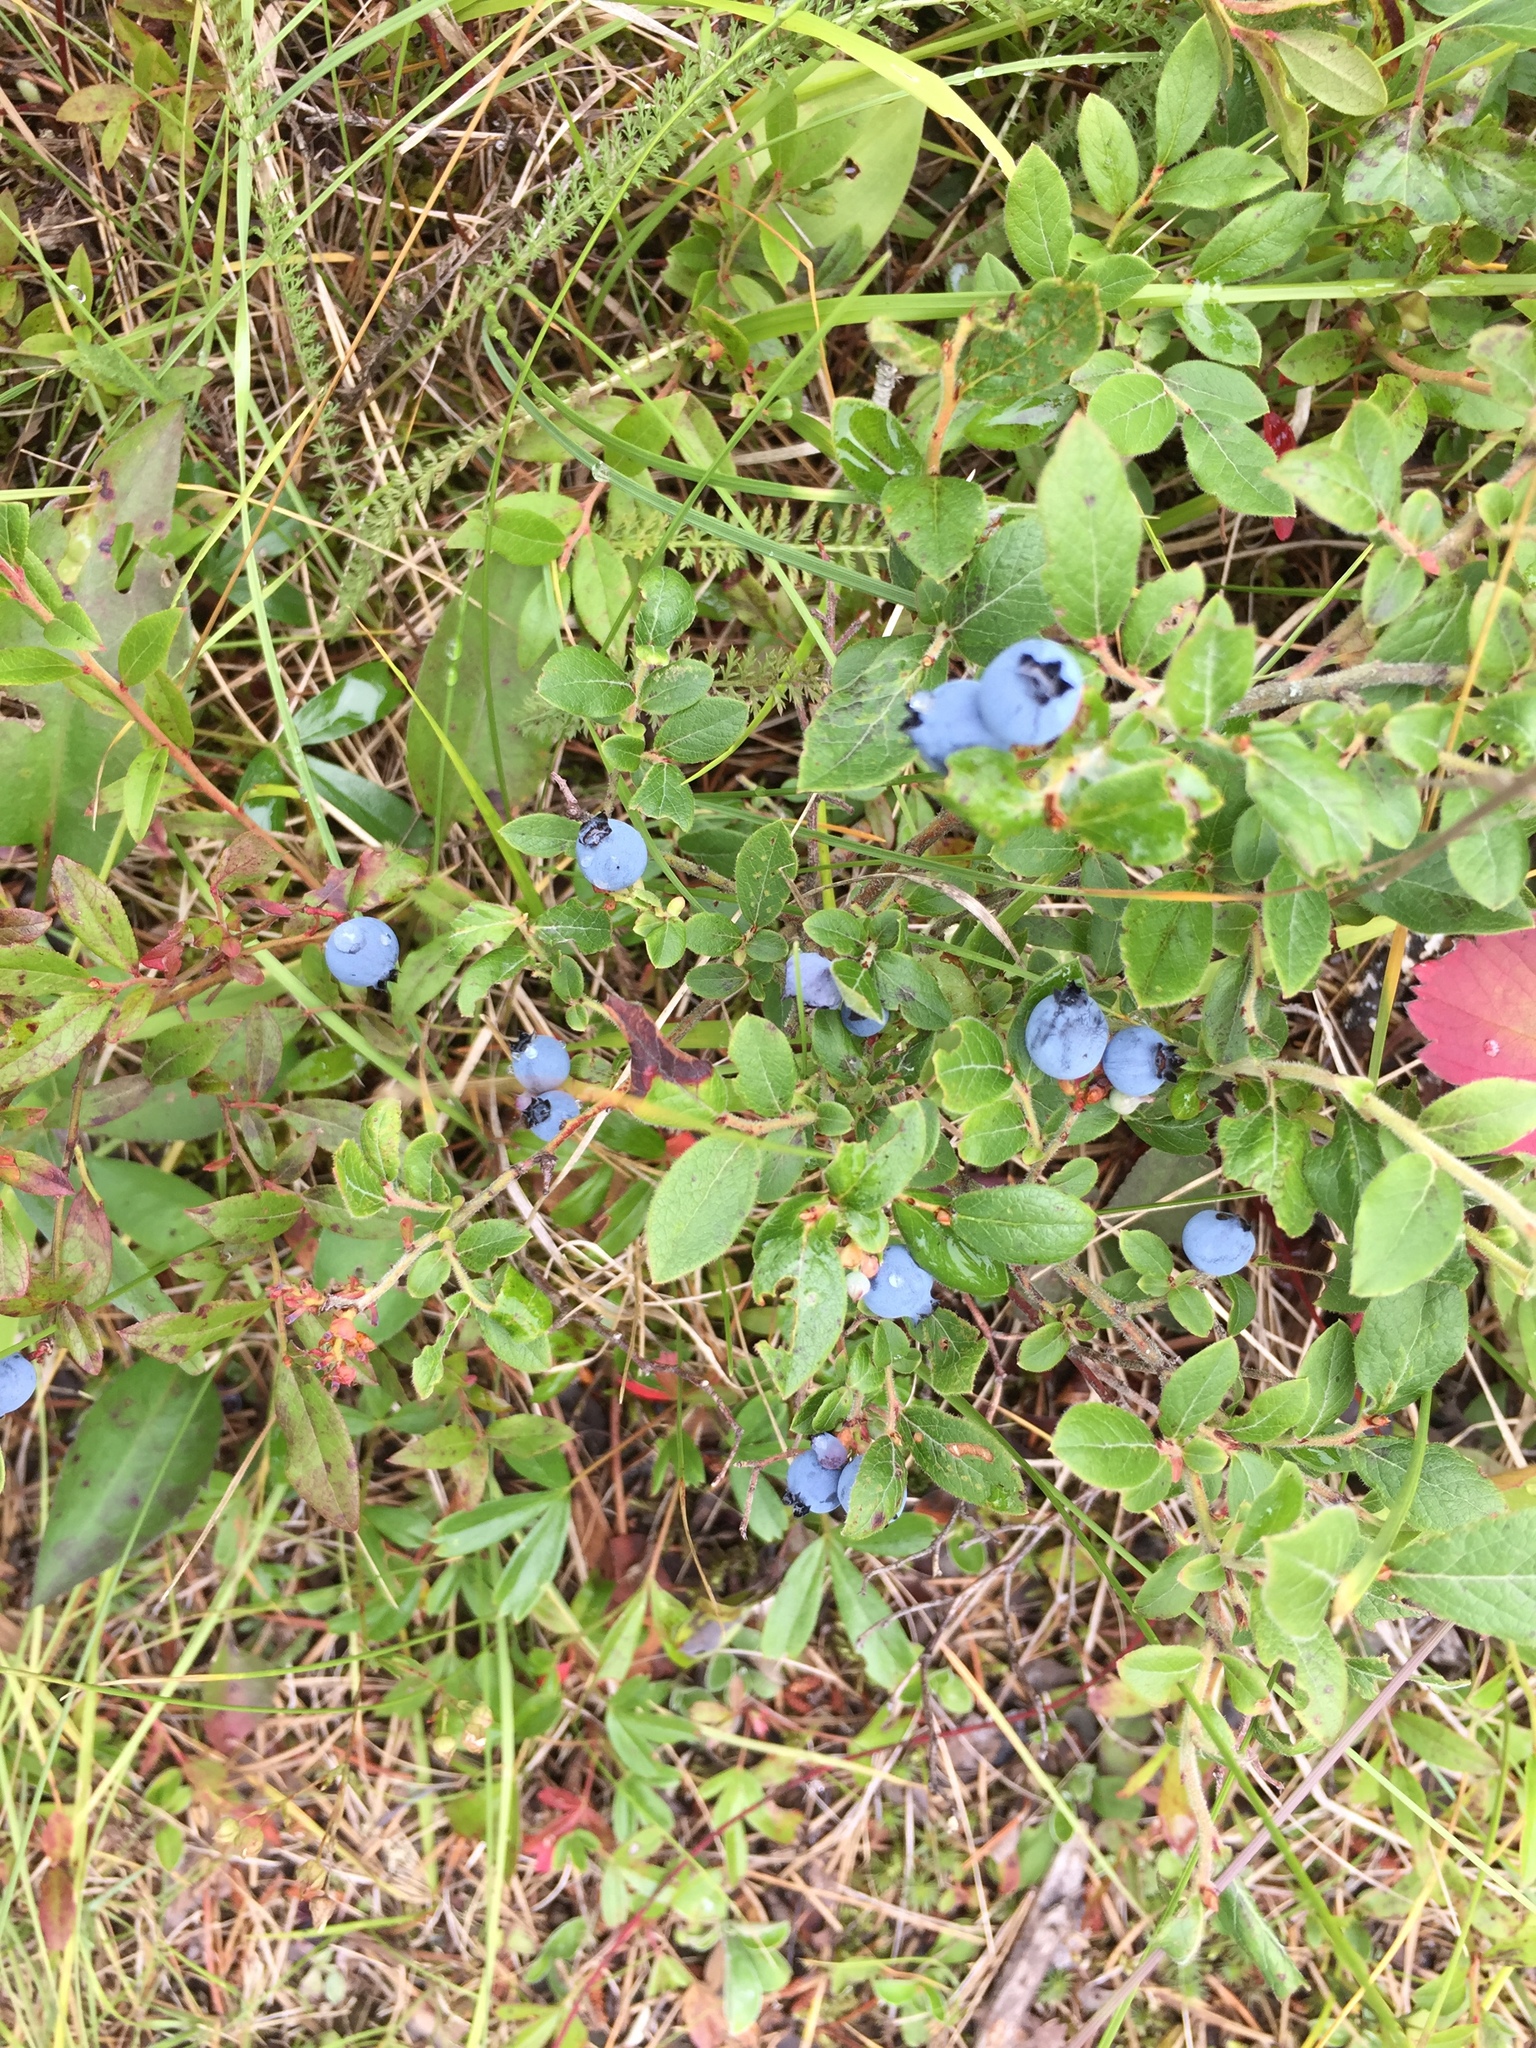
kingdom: Plantae
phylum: Tracheophyta
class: Magnoliopsida
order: Ericales
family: Ericaceae
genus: Vaccinium
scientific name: Vaccinium angustifolium
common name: Early lowbush blueberry
